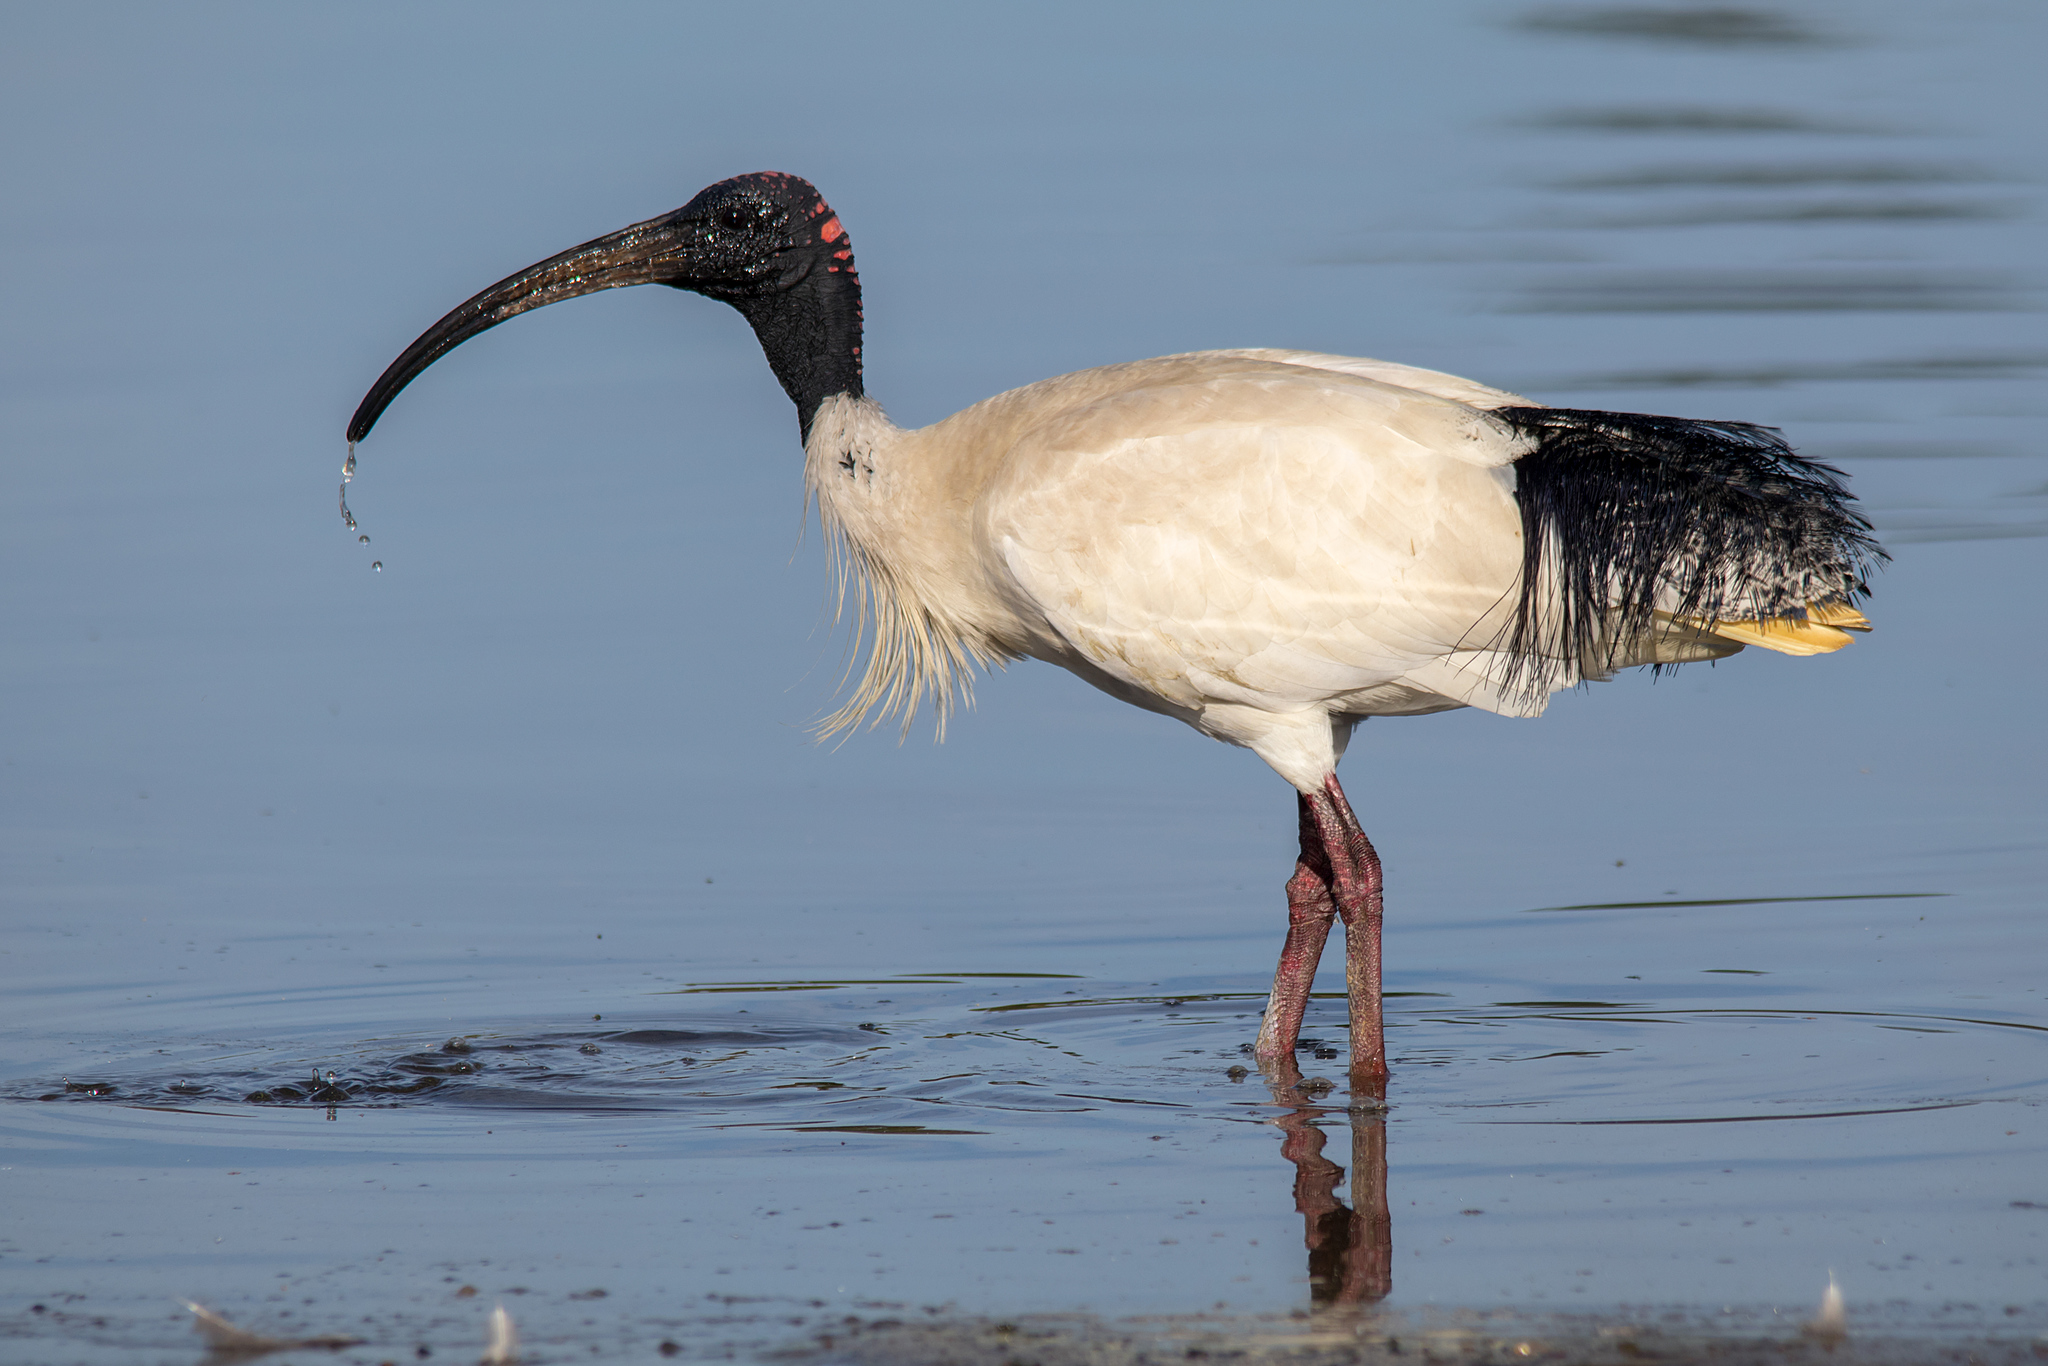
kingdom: Animalia
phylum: Chordata
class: Aves
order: Pelecaniformes
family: Threskiornithidae
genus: Threskiornis
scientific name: Threskiornis molucca
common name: Australian white ibis
